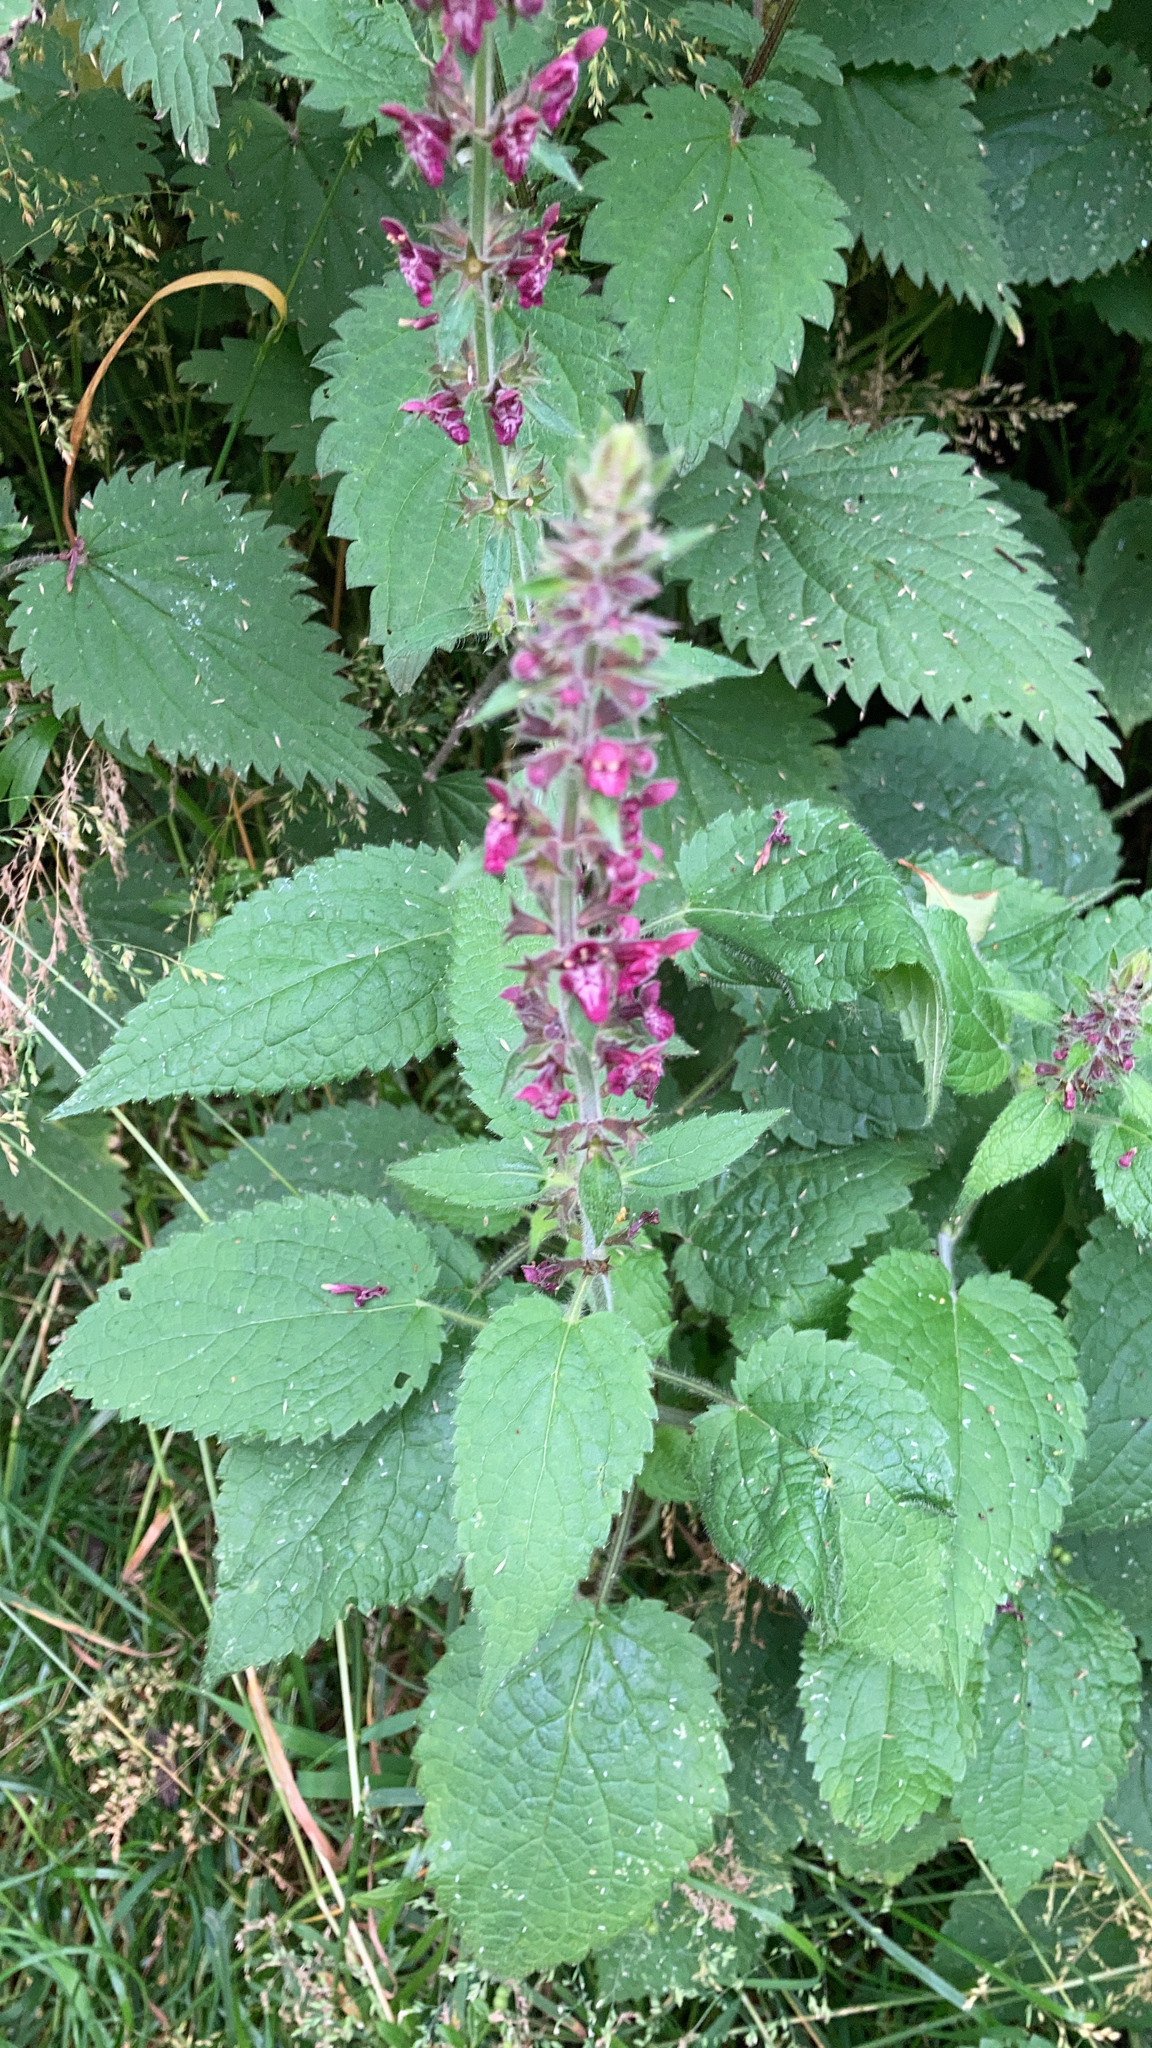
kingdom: Plantae
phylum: Tracheophyta
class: Magnoliopsida
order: Lamiales
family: Lamiaceae
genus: Stachys
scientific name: Stachys sylvatica
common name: Hedge woundwort
